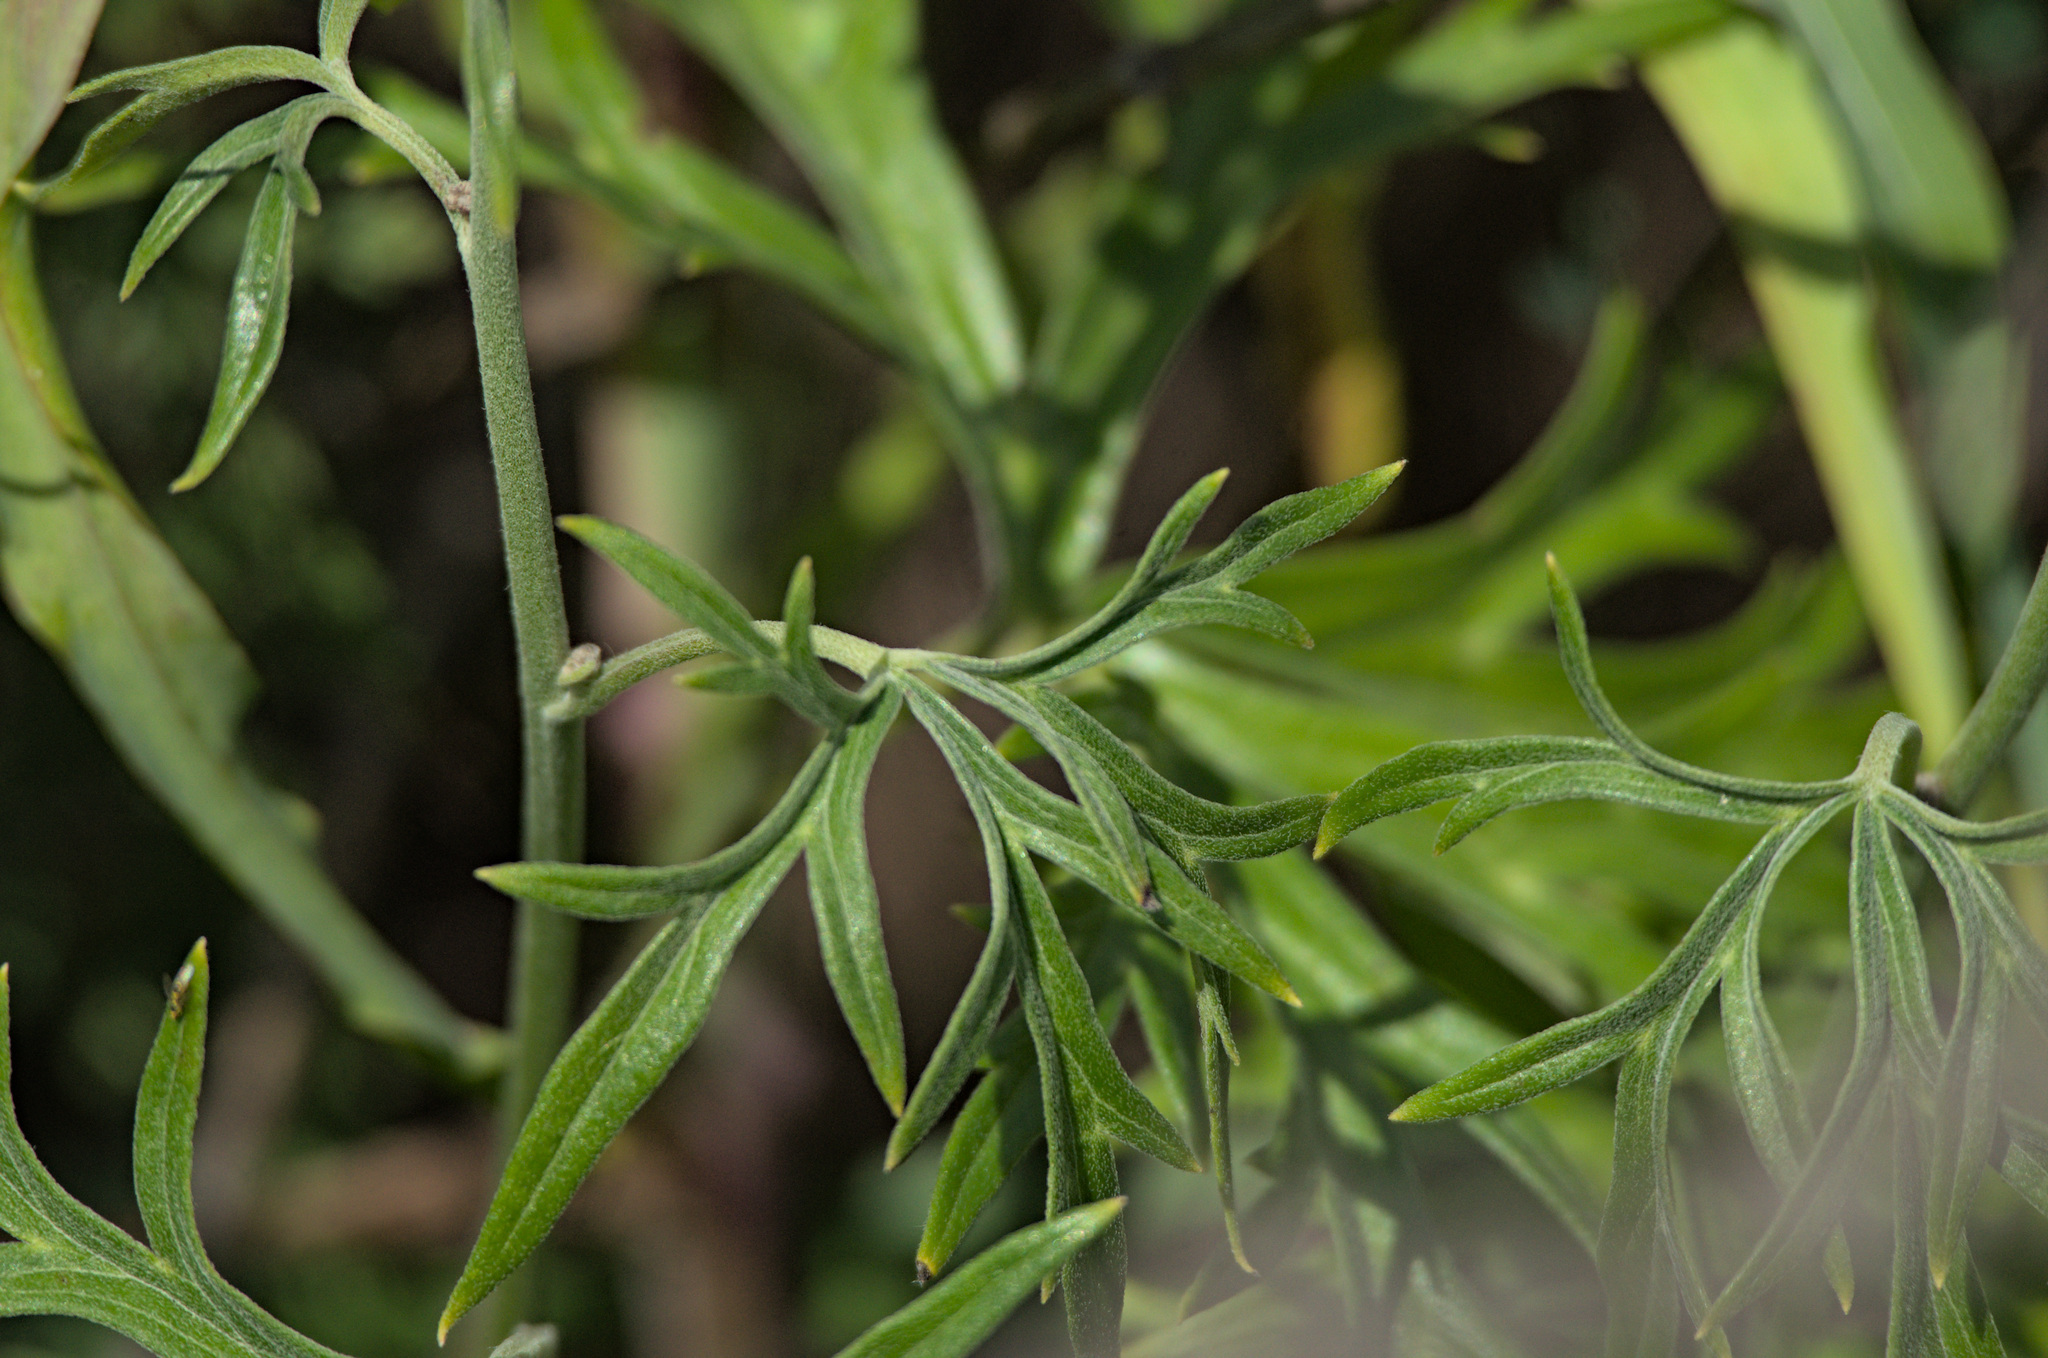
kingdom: Plantae
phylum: Tracheophyta
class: Magnoliopsida
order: Ranunculales
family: Ranunculaceae
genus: Aconitum
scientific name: Aconitum barbatum
